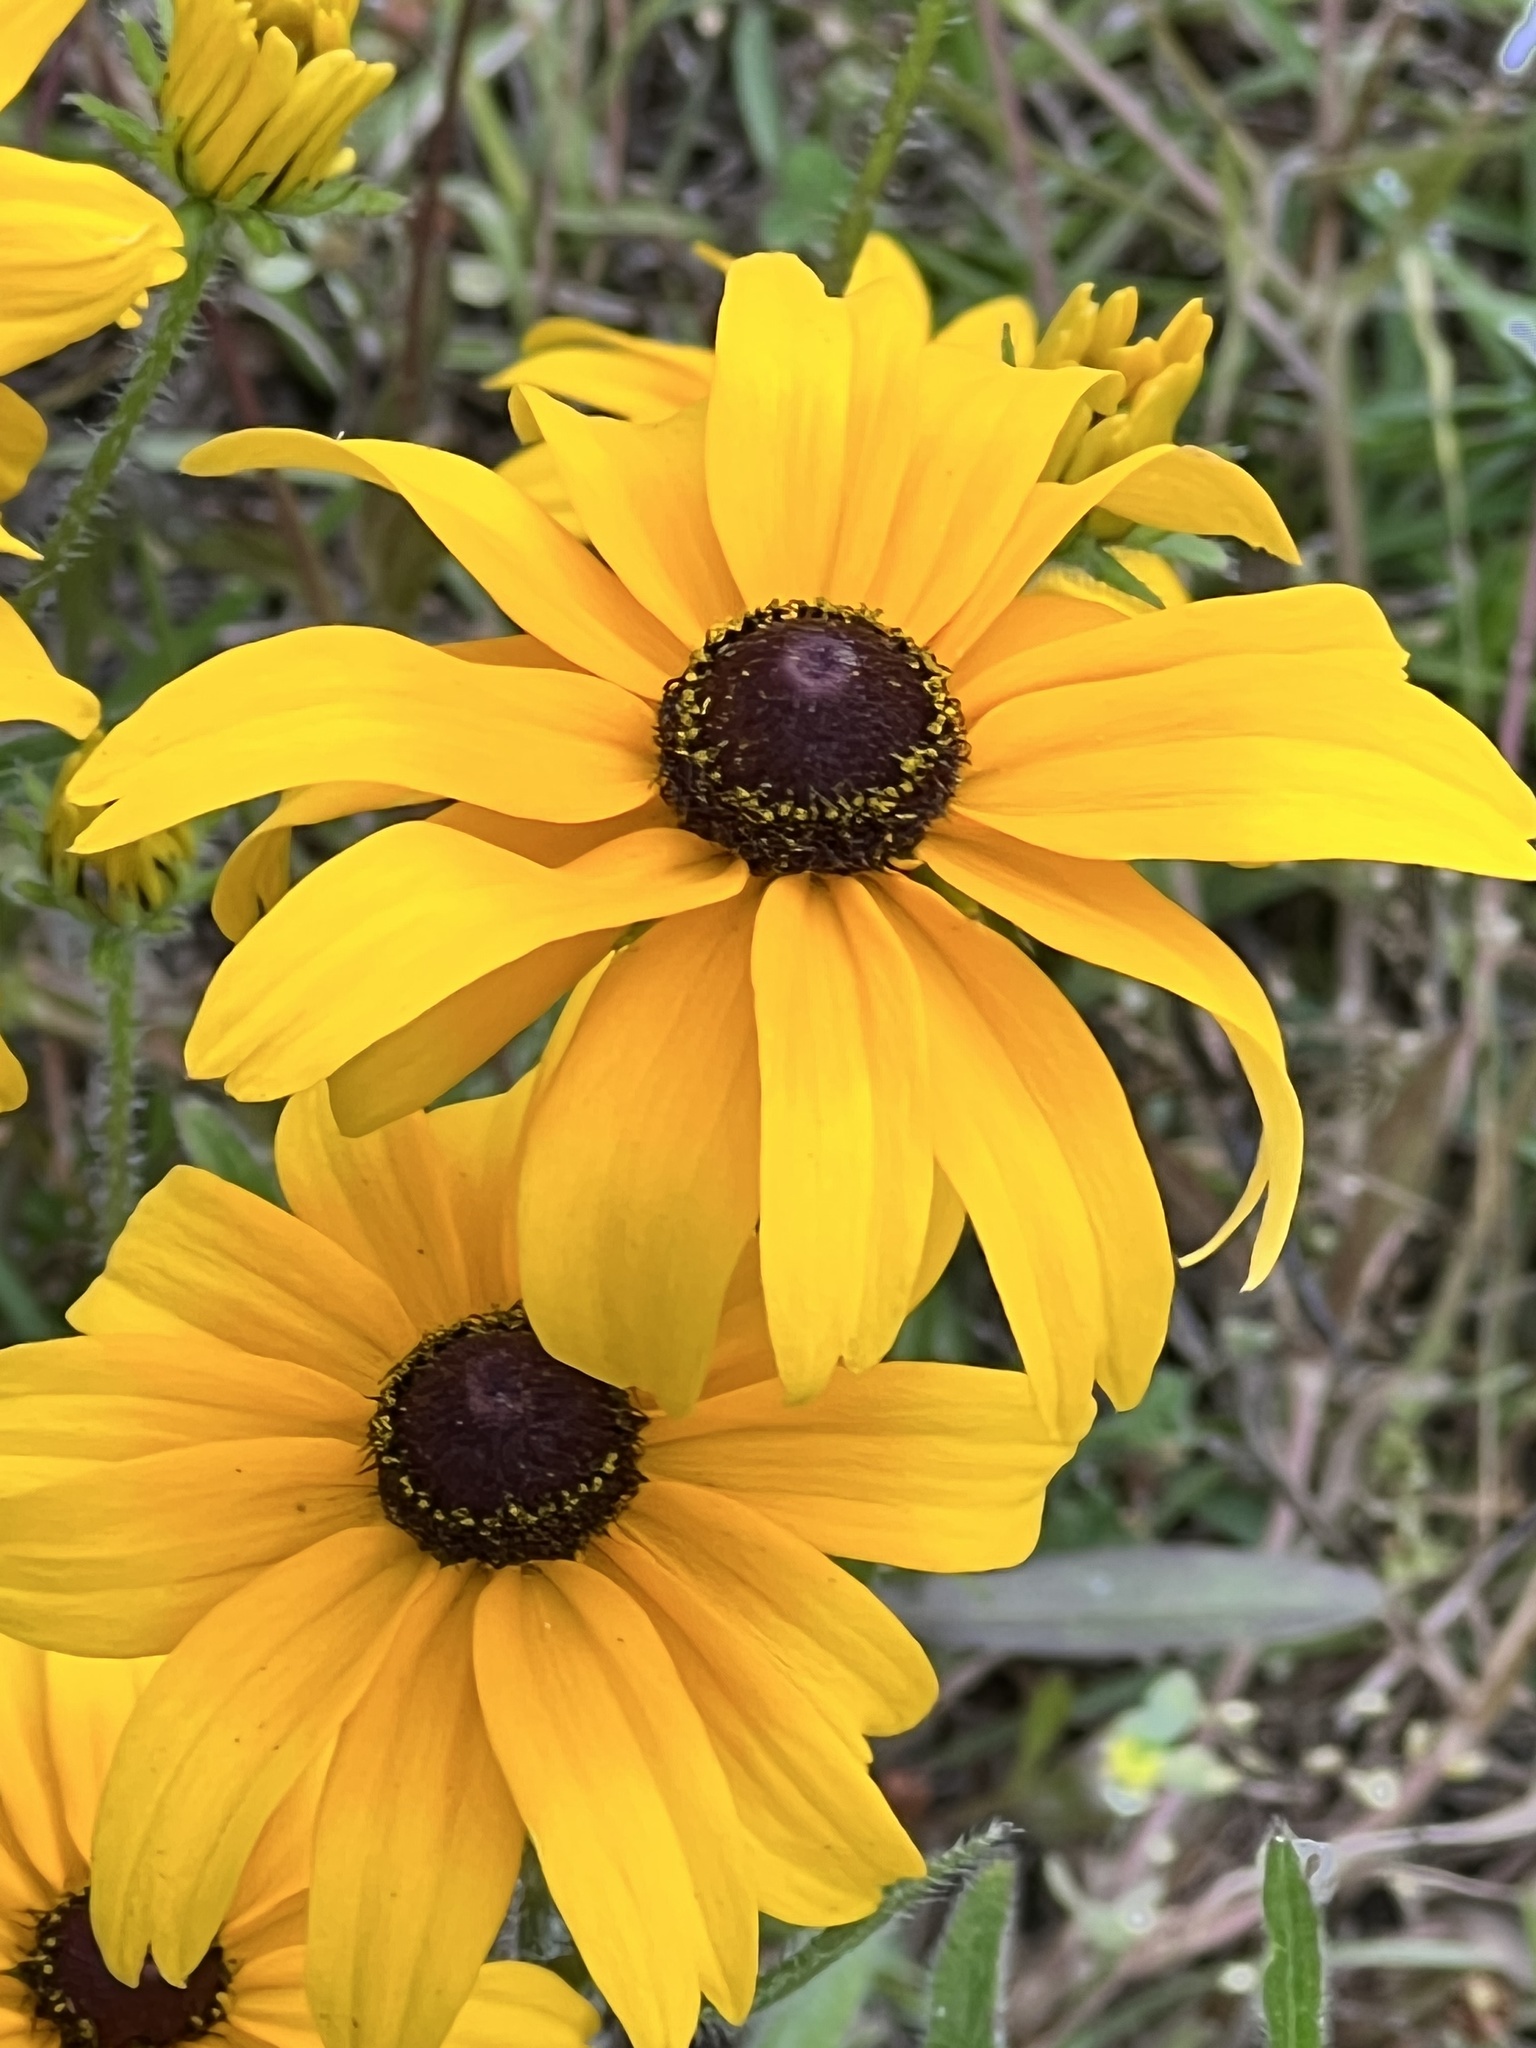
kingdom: Plantae
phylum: Tracheophyta
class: Magnoliopsida
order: Asterales
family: Asteraceae
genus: Rudbeckia
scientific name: Rudbeckia hirta
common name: Black-eyed-susan
